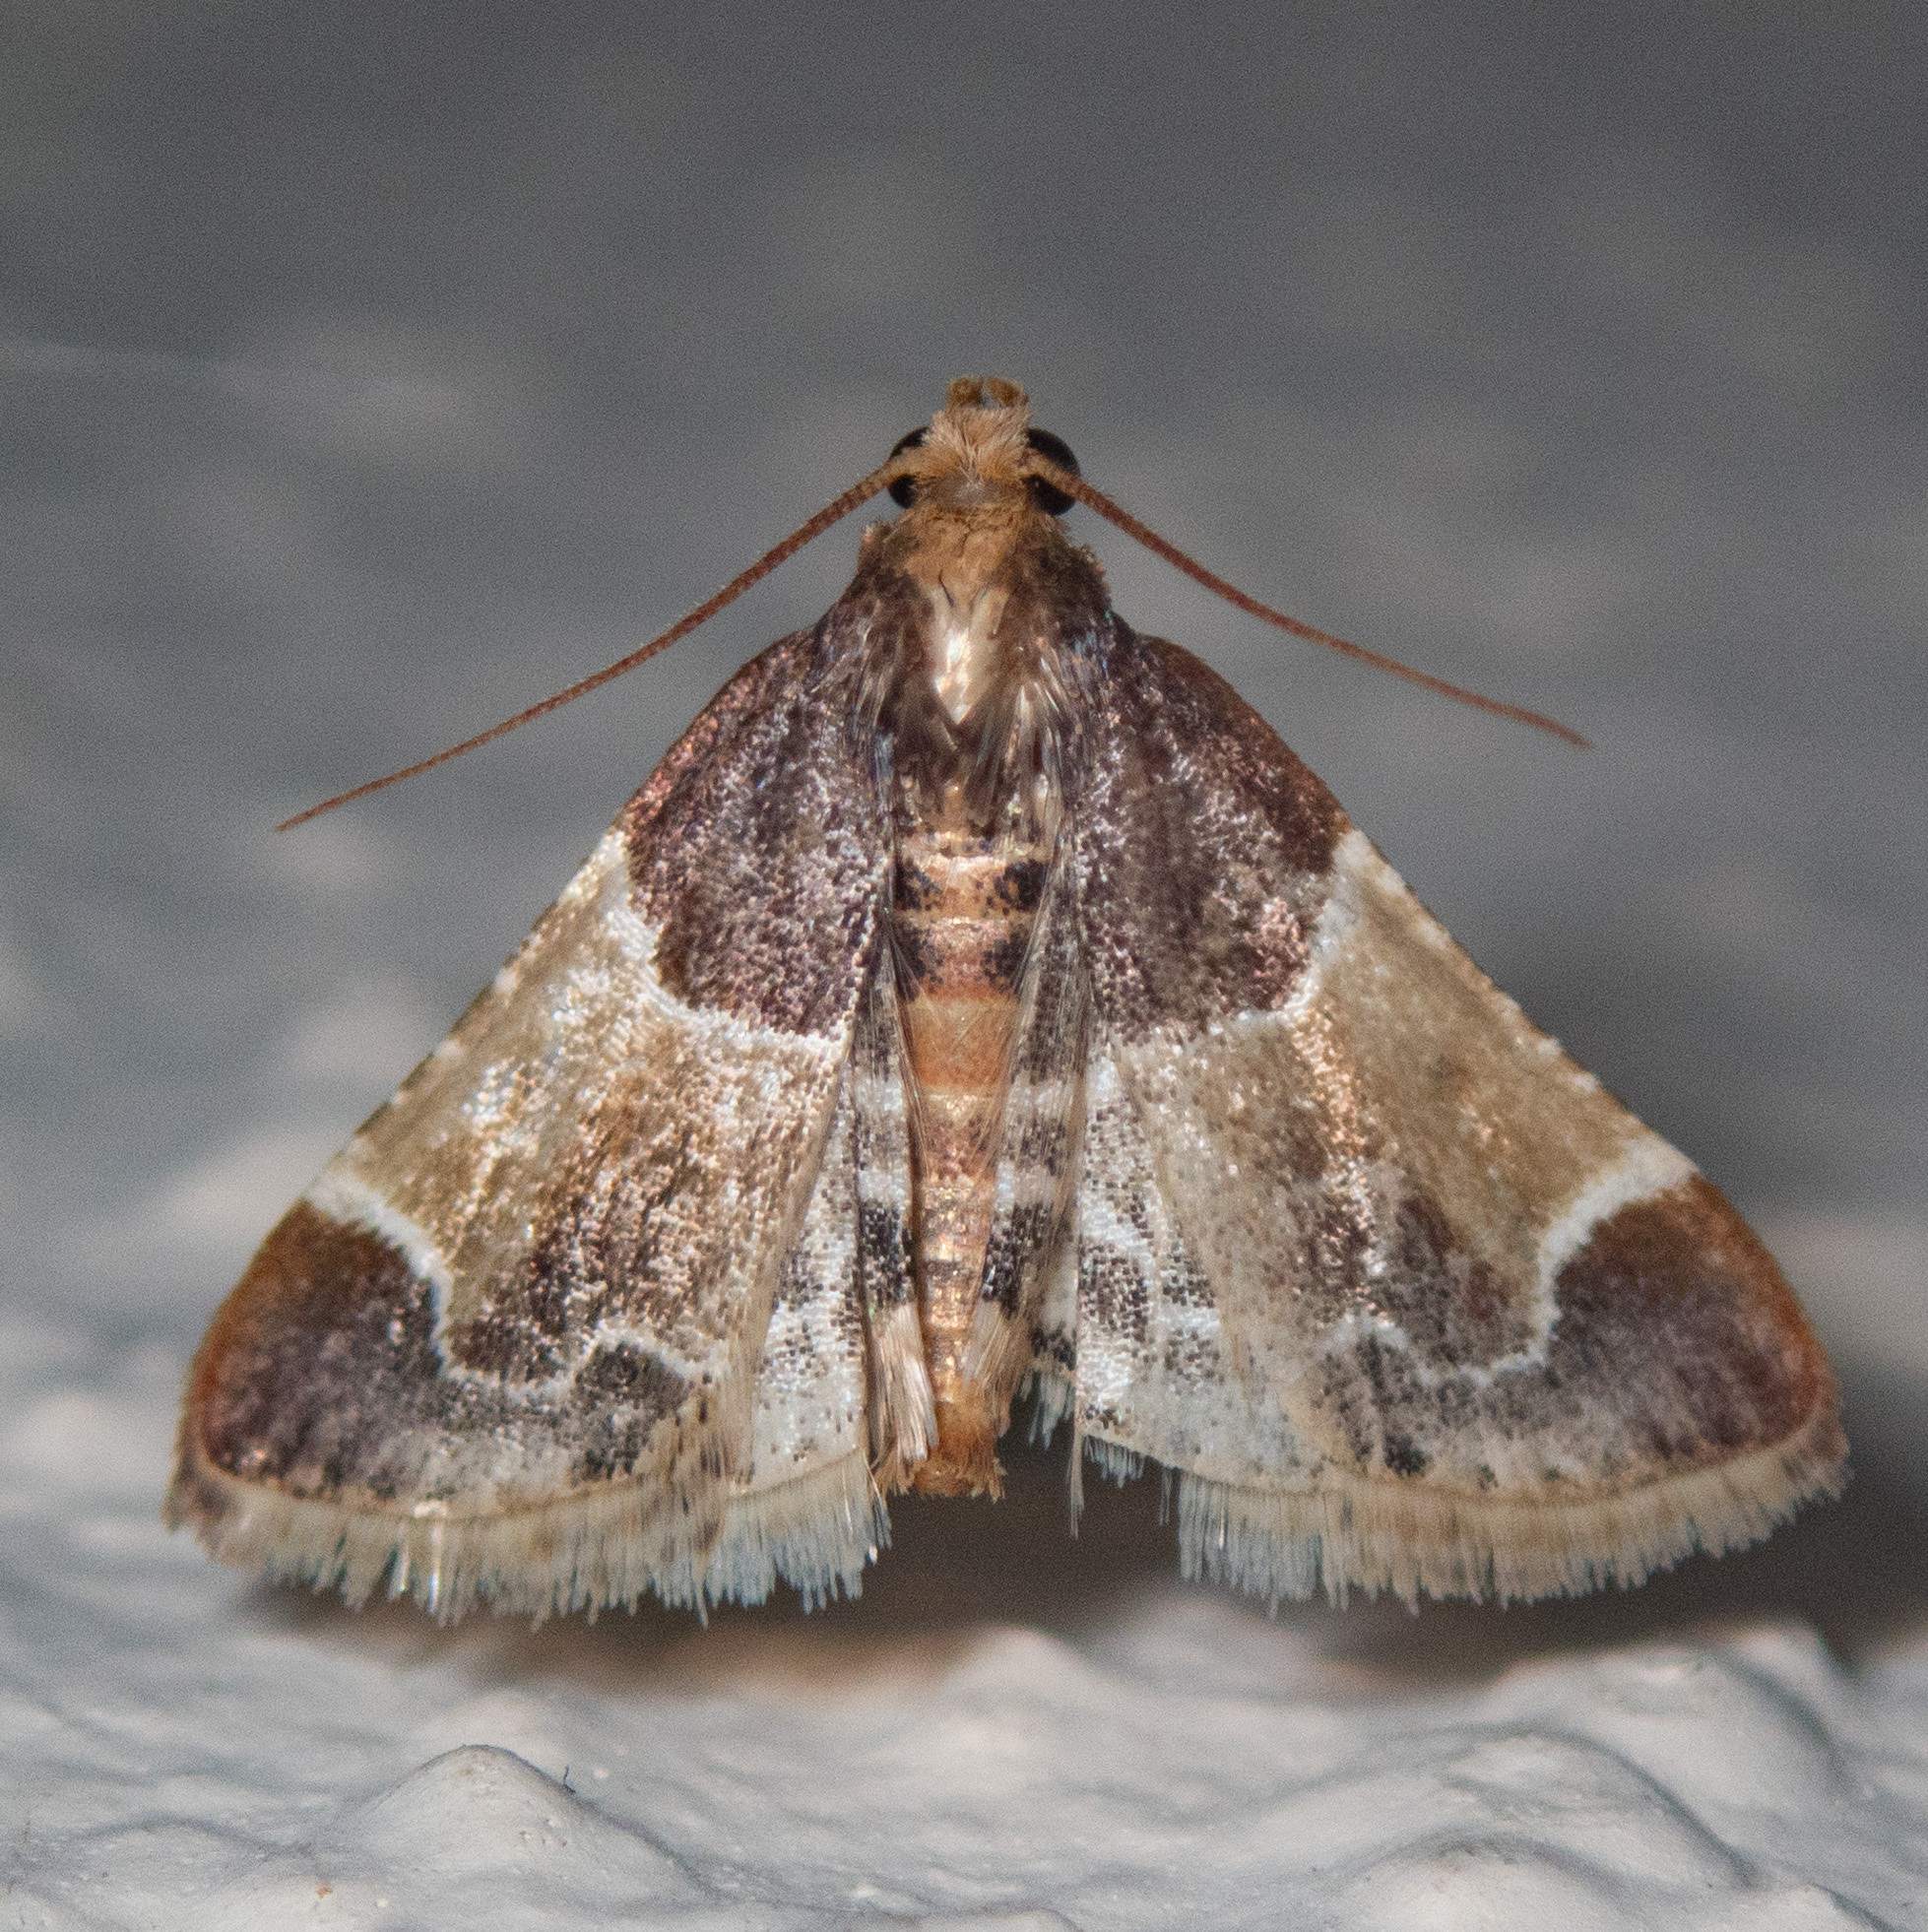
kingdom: Animalia
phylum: Arthropoda
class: Insecta
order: Lepidoptera
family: Pyralidae
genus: Pyralis
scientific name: Pyralis farinalis
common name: Meal moth
